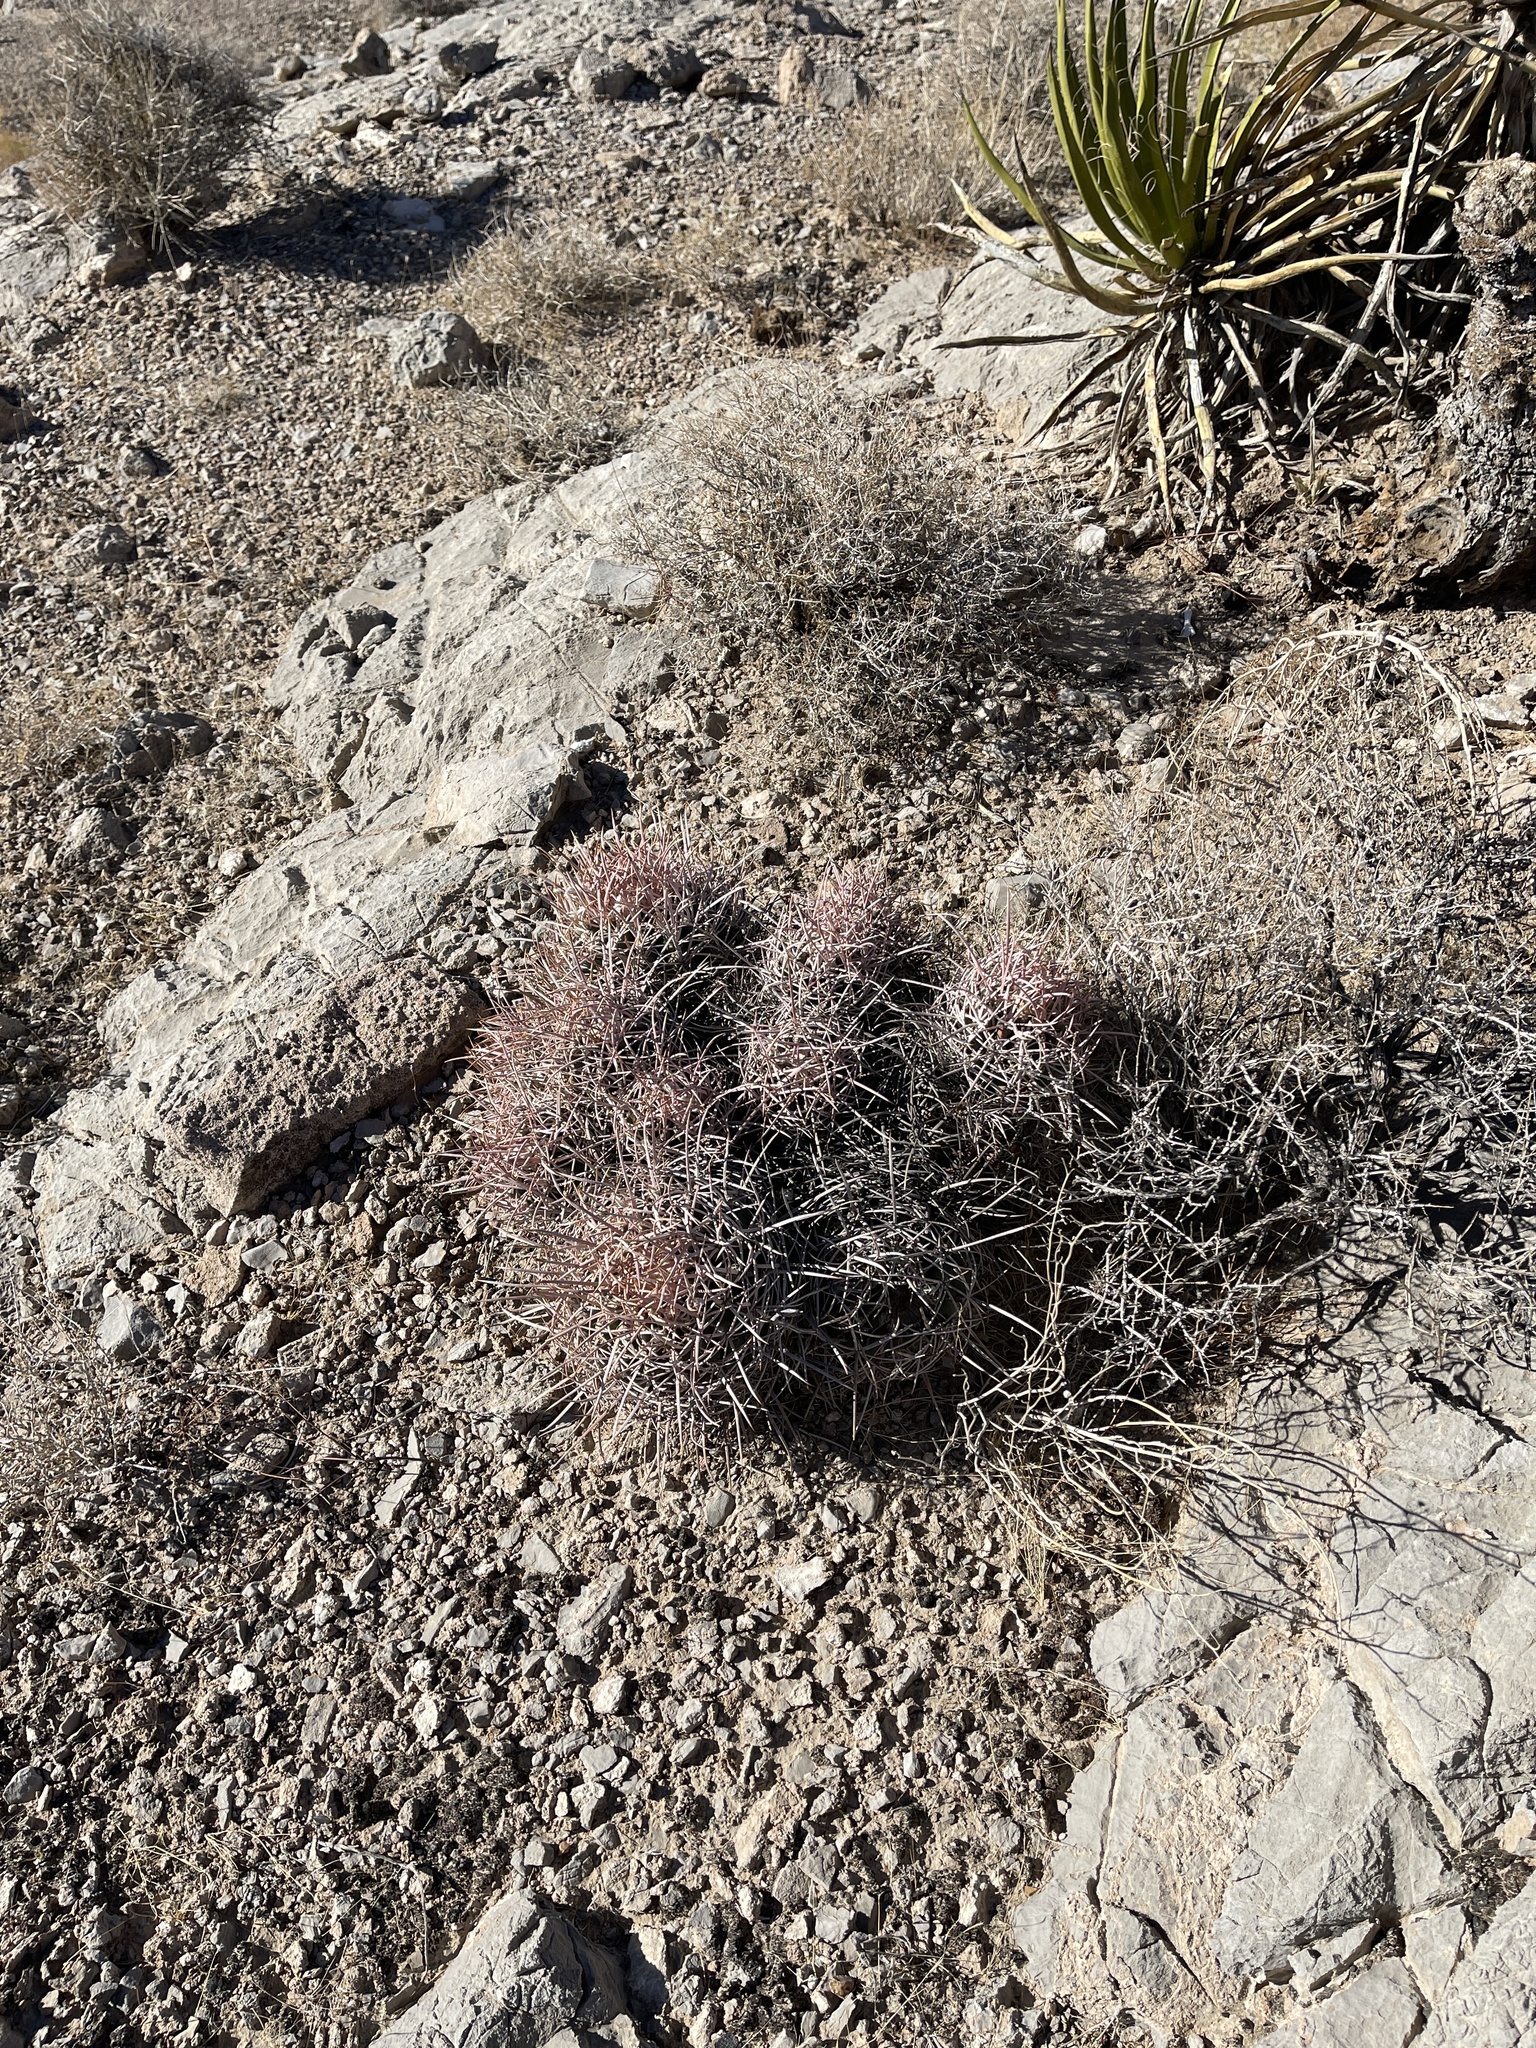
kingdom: Plantae
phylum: Tracheophyta
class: Magnoliopsida
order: Caryophyllales
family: Cactaceae
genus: Echinocactus
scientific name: Echinocactus polycephalus
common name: Cottontop cactus
